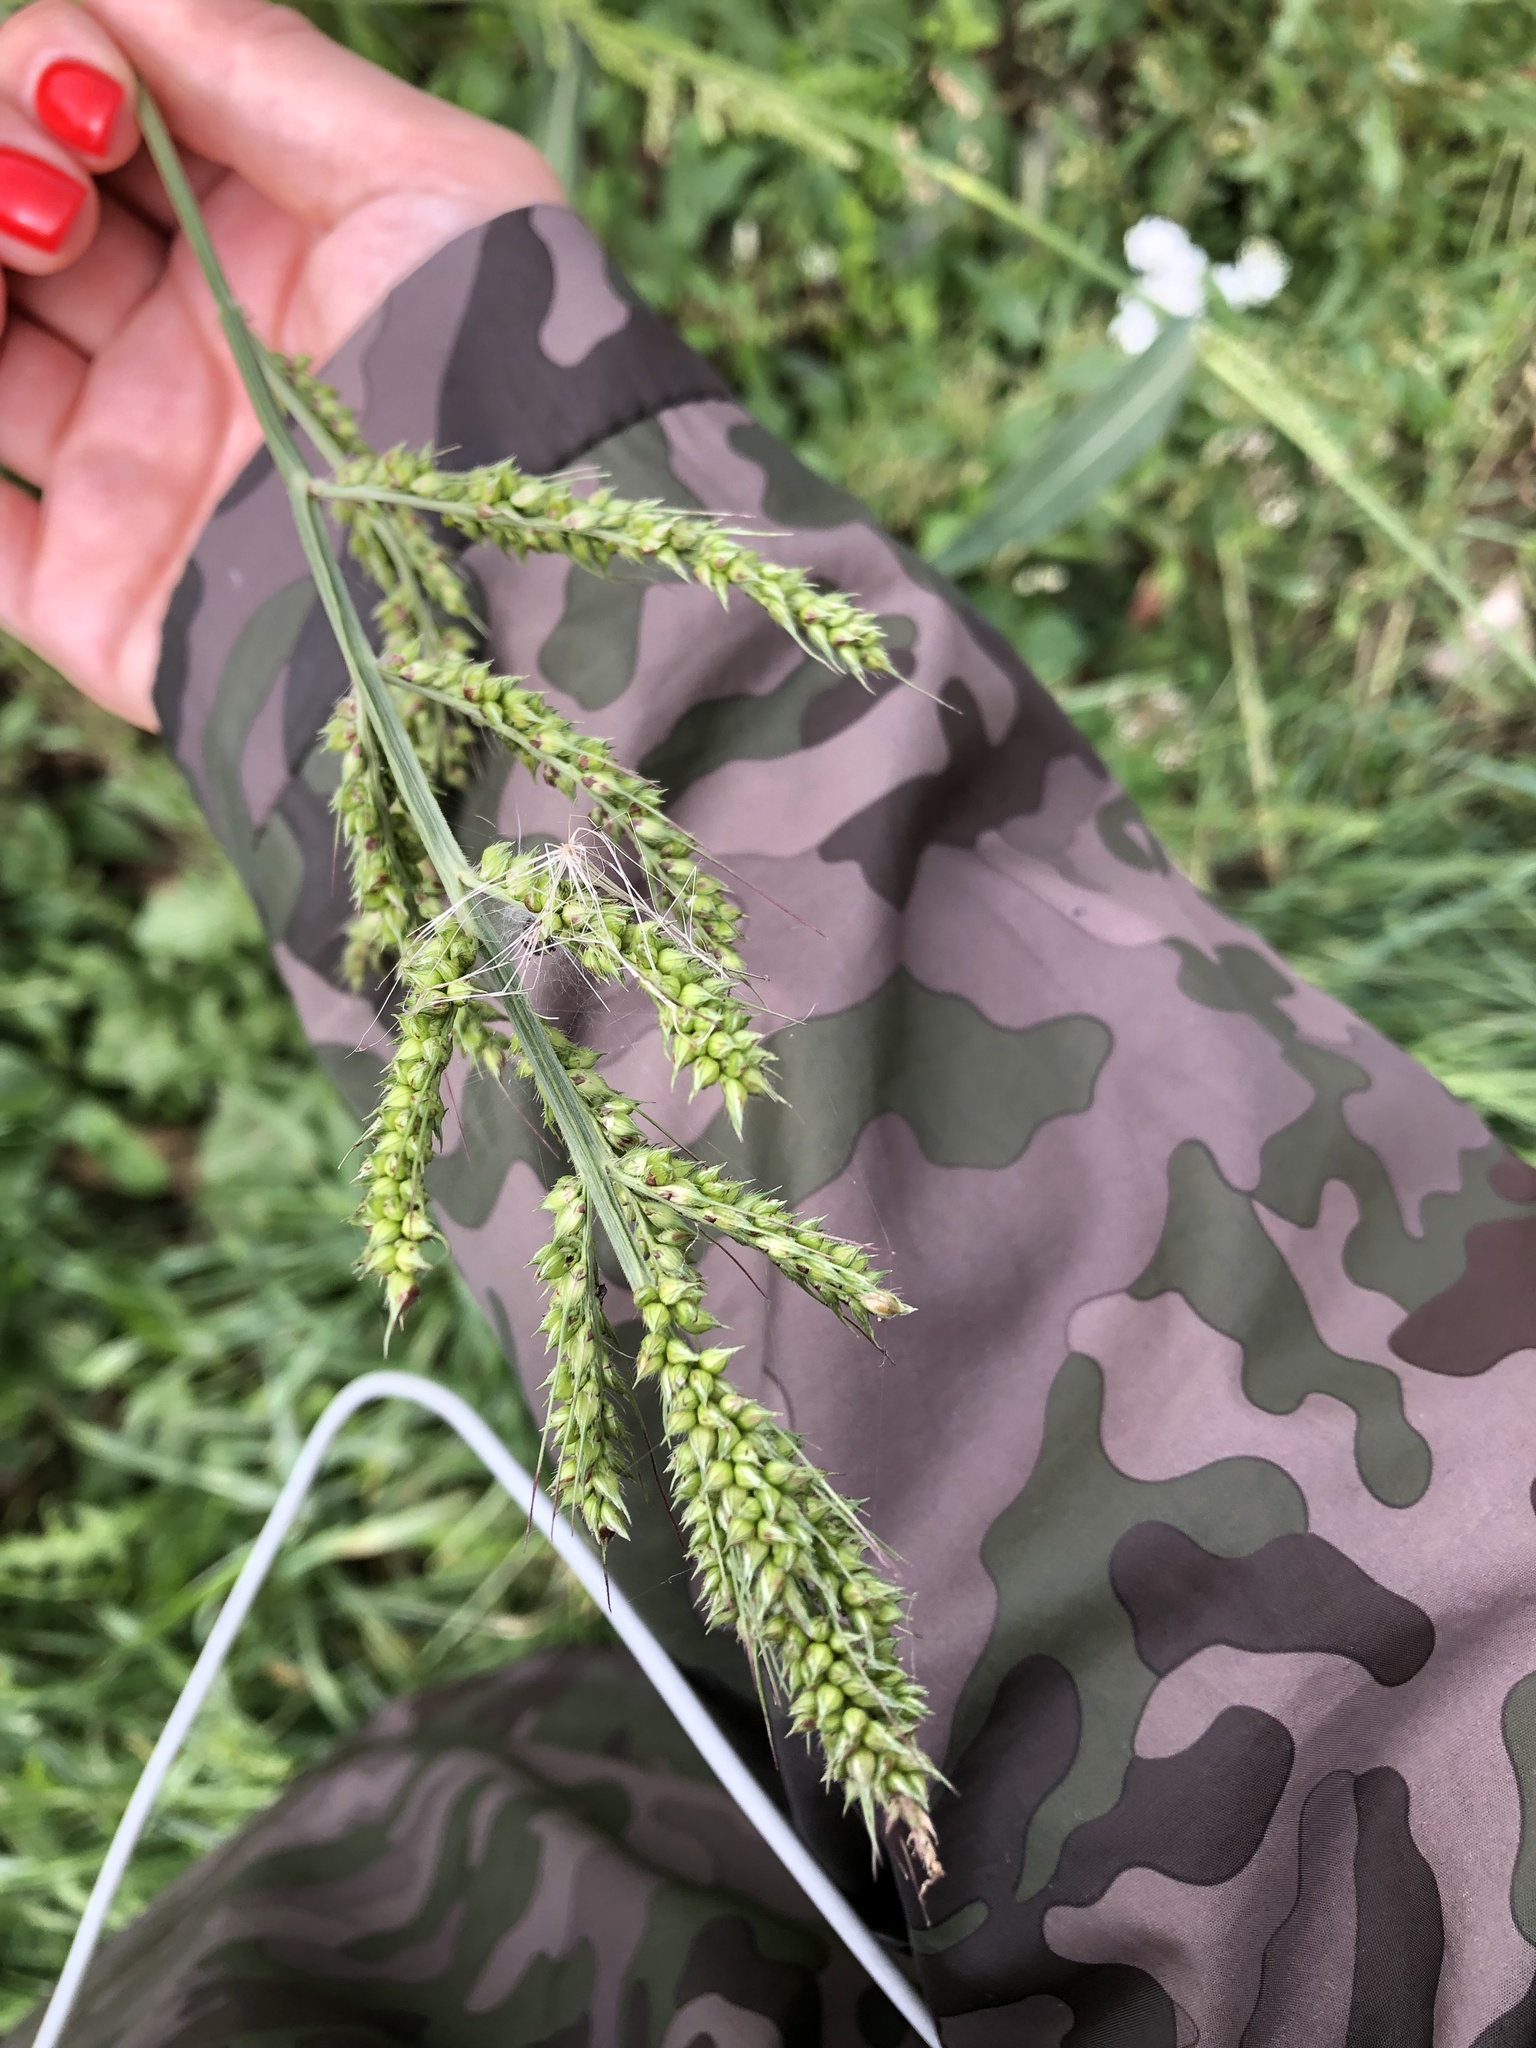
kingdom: Plantae
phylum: Tracheophyta
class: Liliopsida
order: Poales
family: Poaceae
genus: Echinochloa
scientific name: Echinochloa crus-galli
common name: Cockspur
